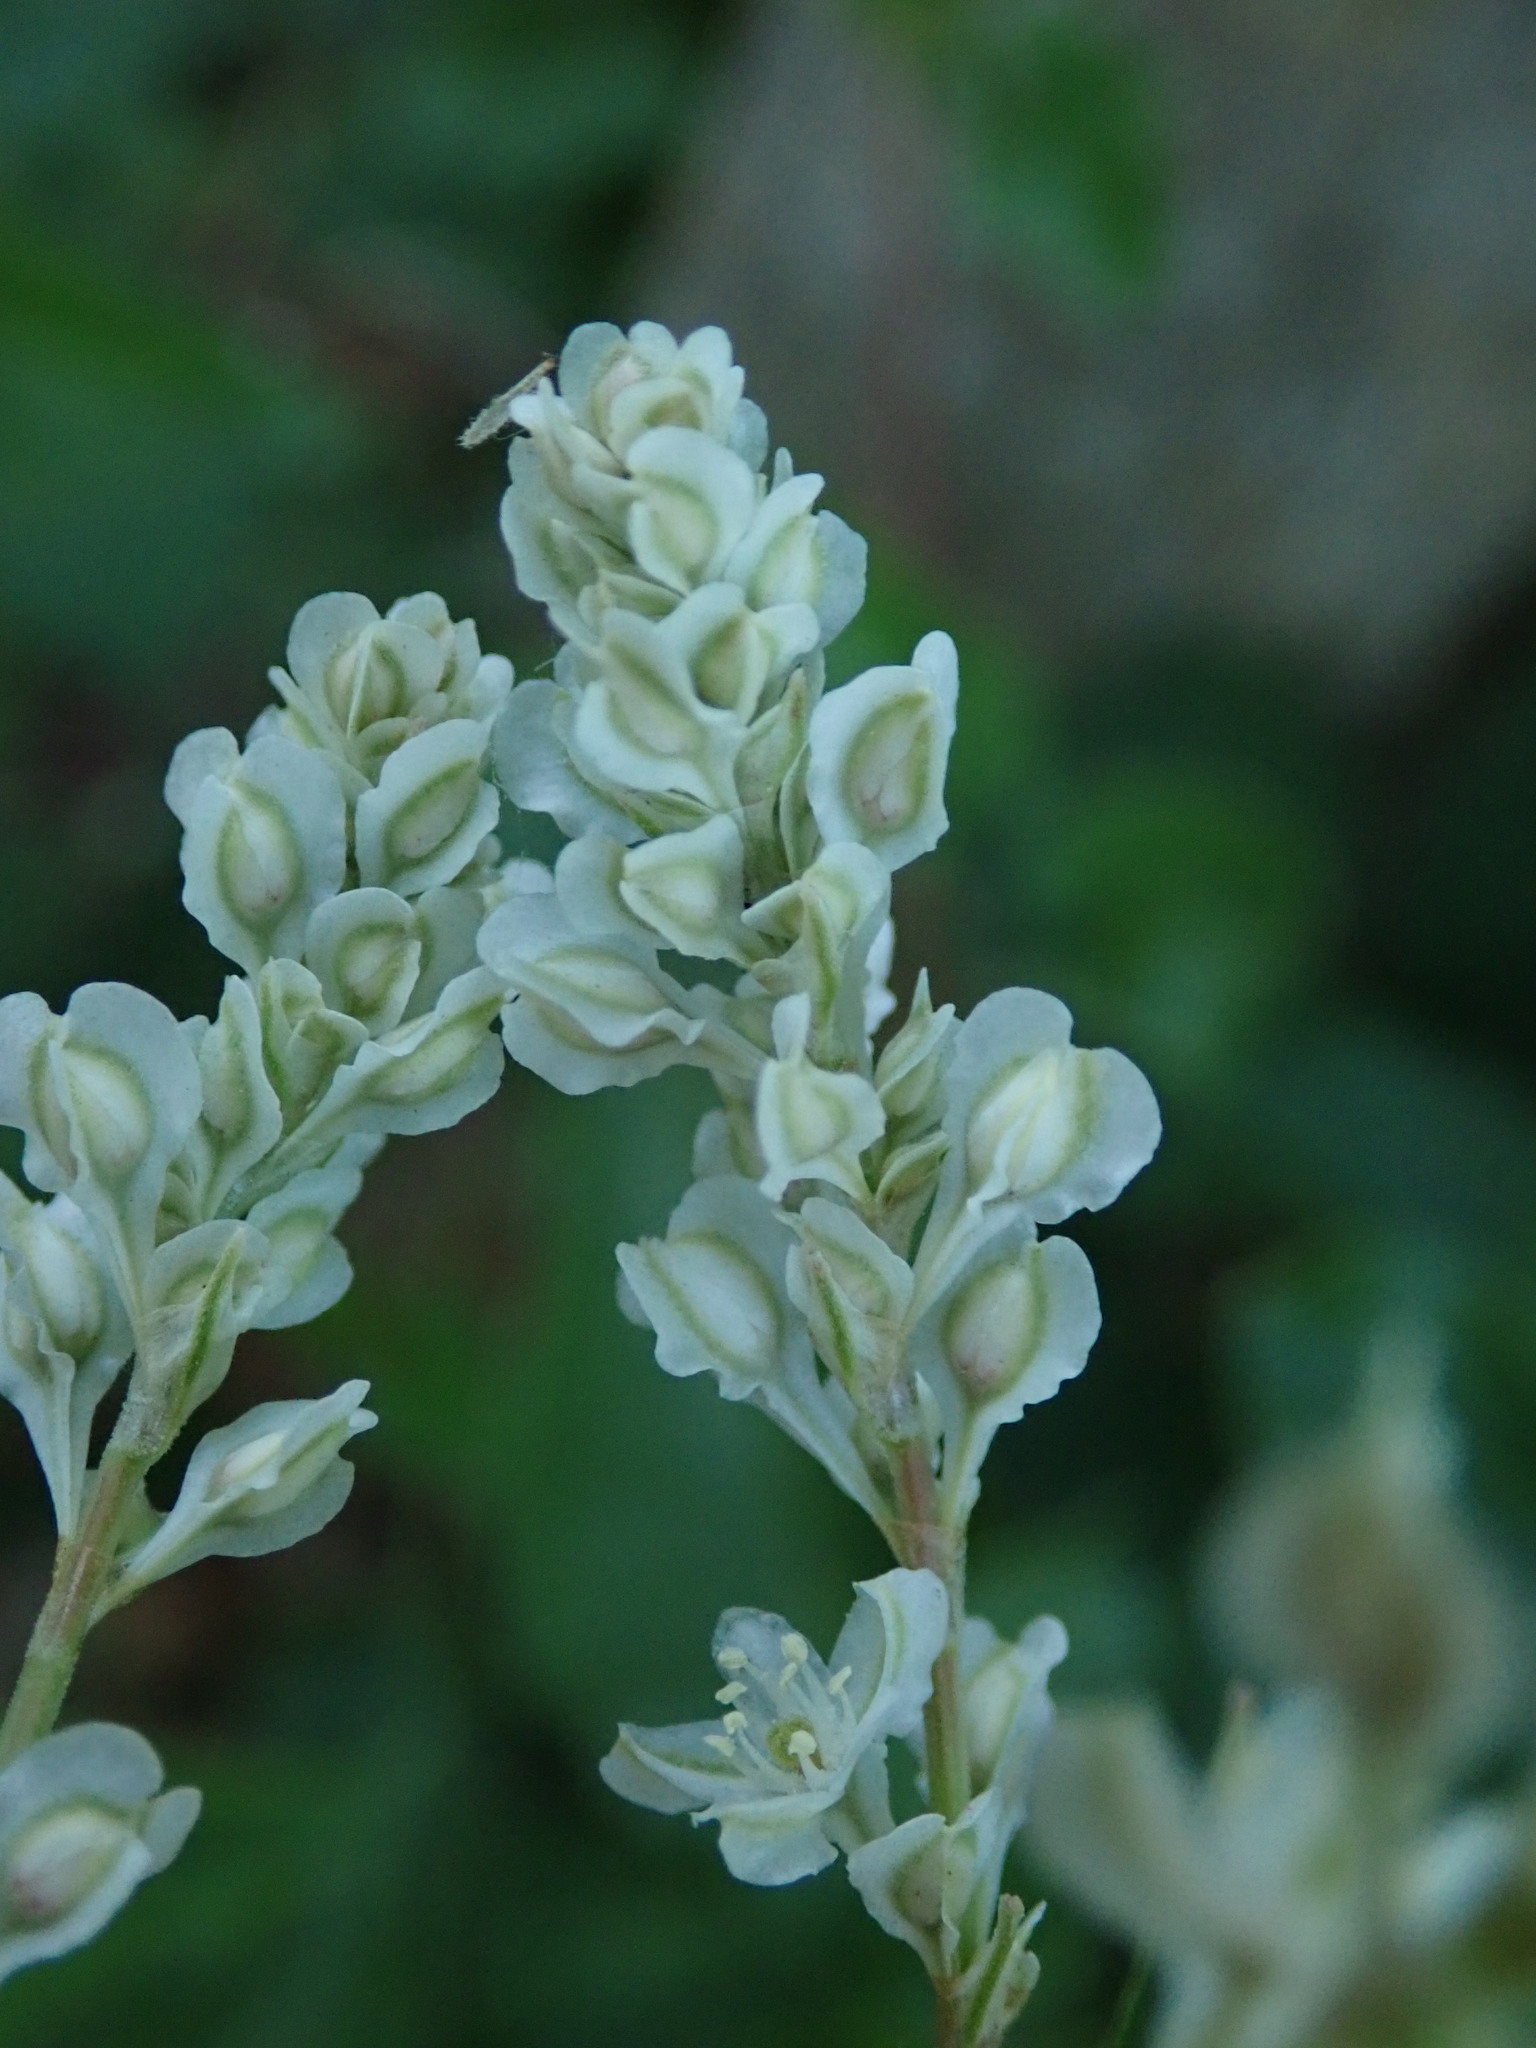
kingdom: Plantae
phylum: Tracheophyta
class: Magnoliopsida
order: Caryophyllales
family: Polygonaceae
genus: Fallopia
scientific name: Fallopia baldschuanica
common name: Russian-vine
